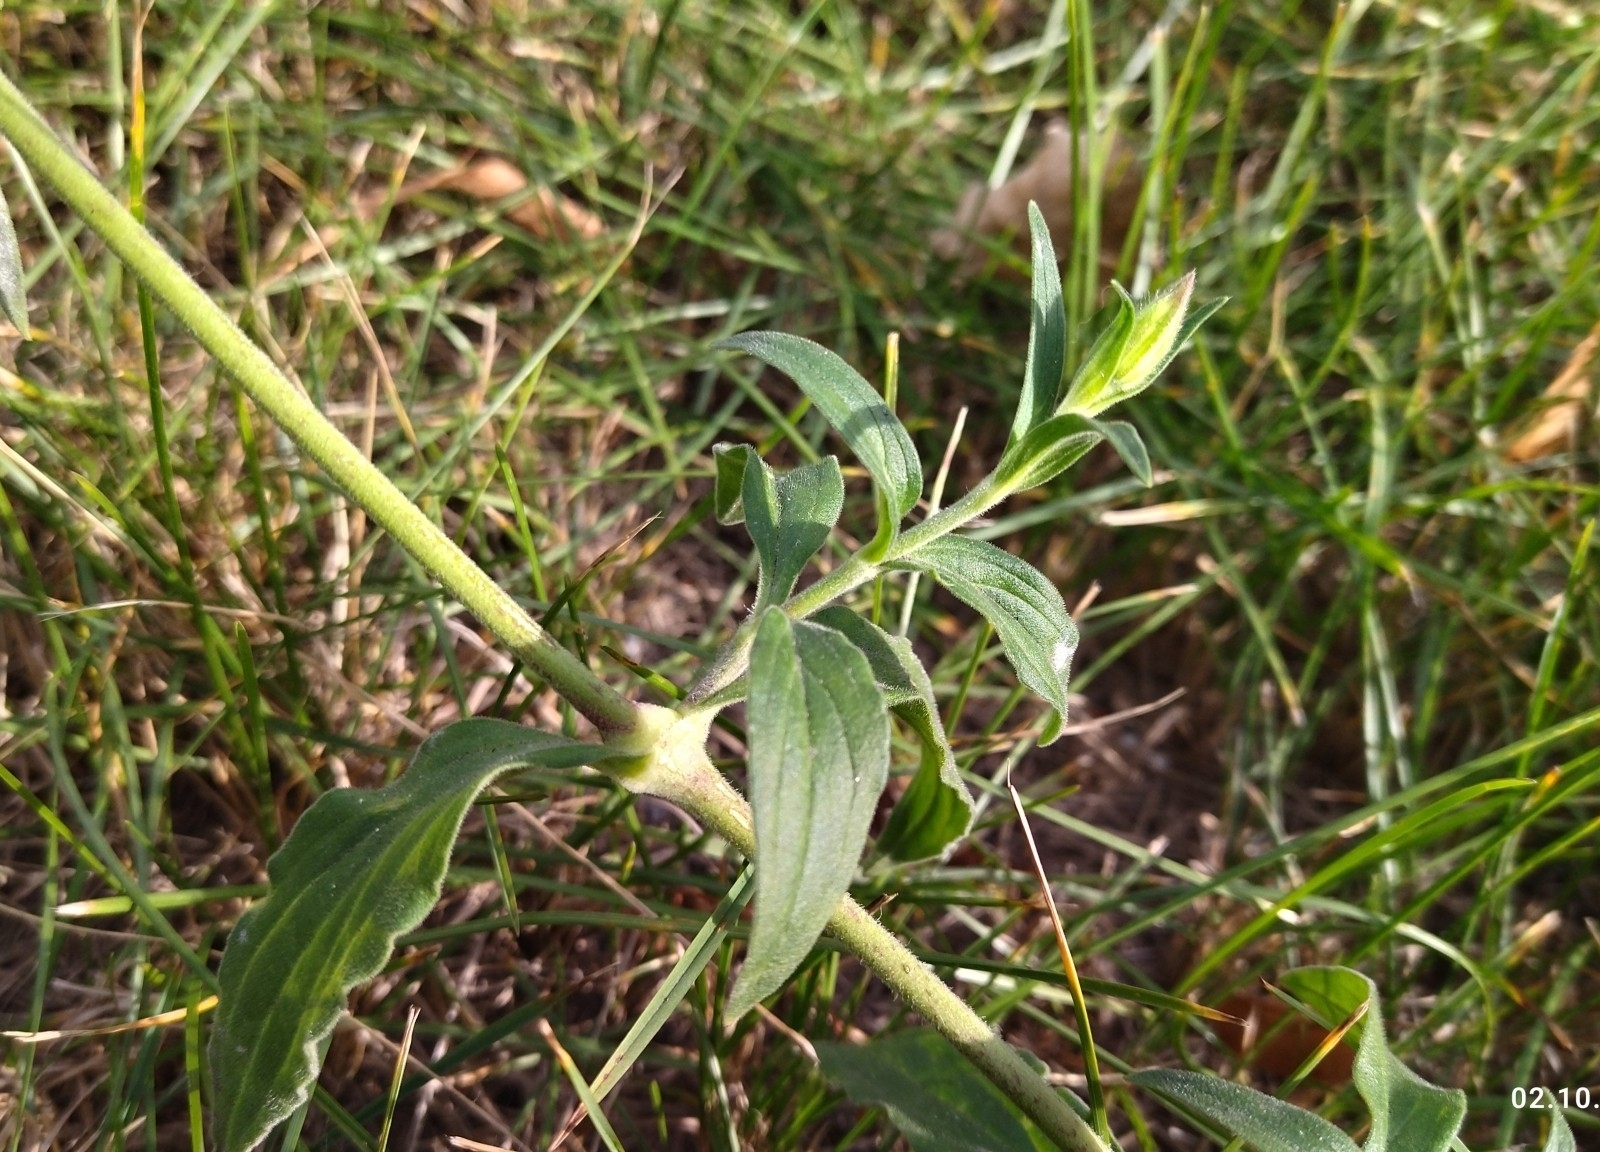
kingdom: Plantae
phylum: Tracheophyta
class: Magnoliopsida
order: Caryophyllales
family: Caryophyllaceae
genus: Silene
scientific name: Silene latifolia
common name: White campion
